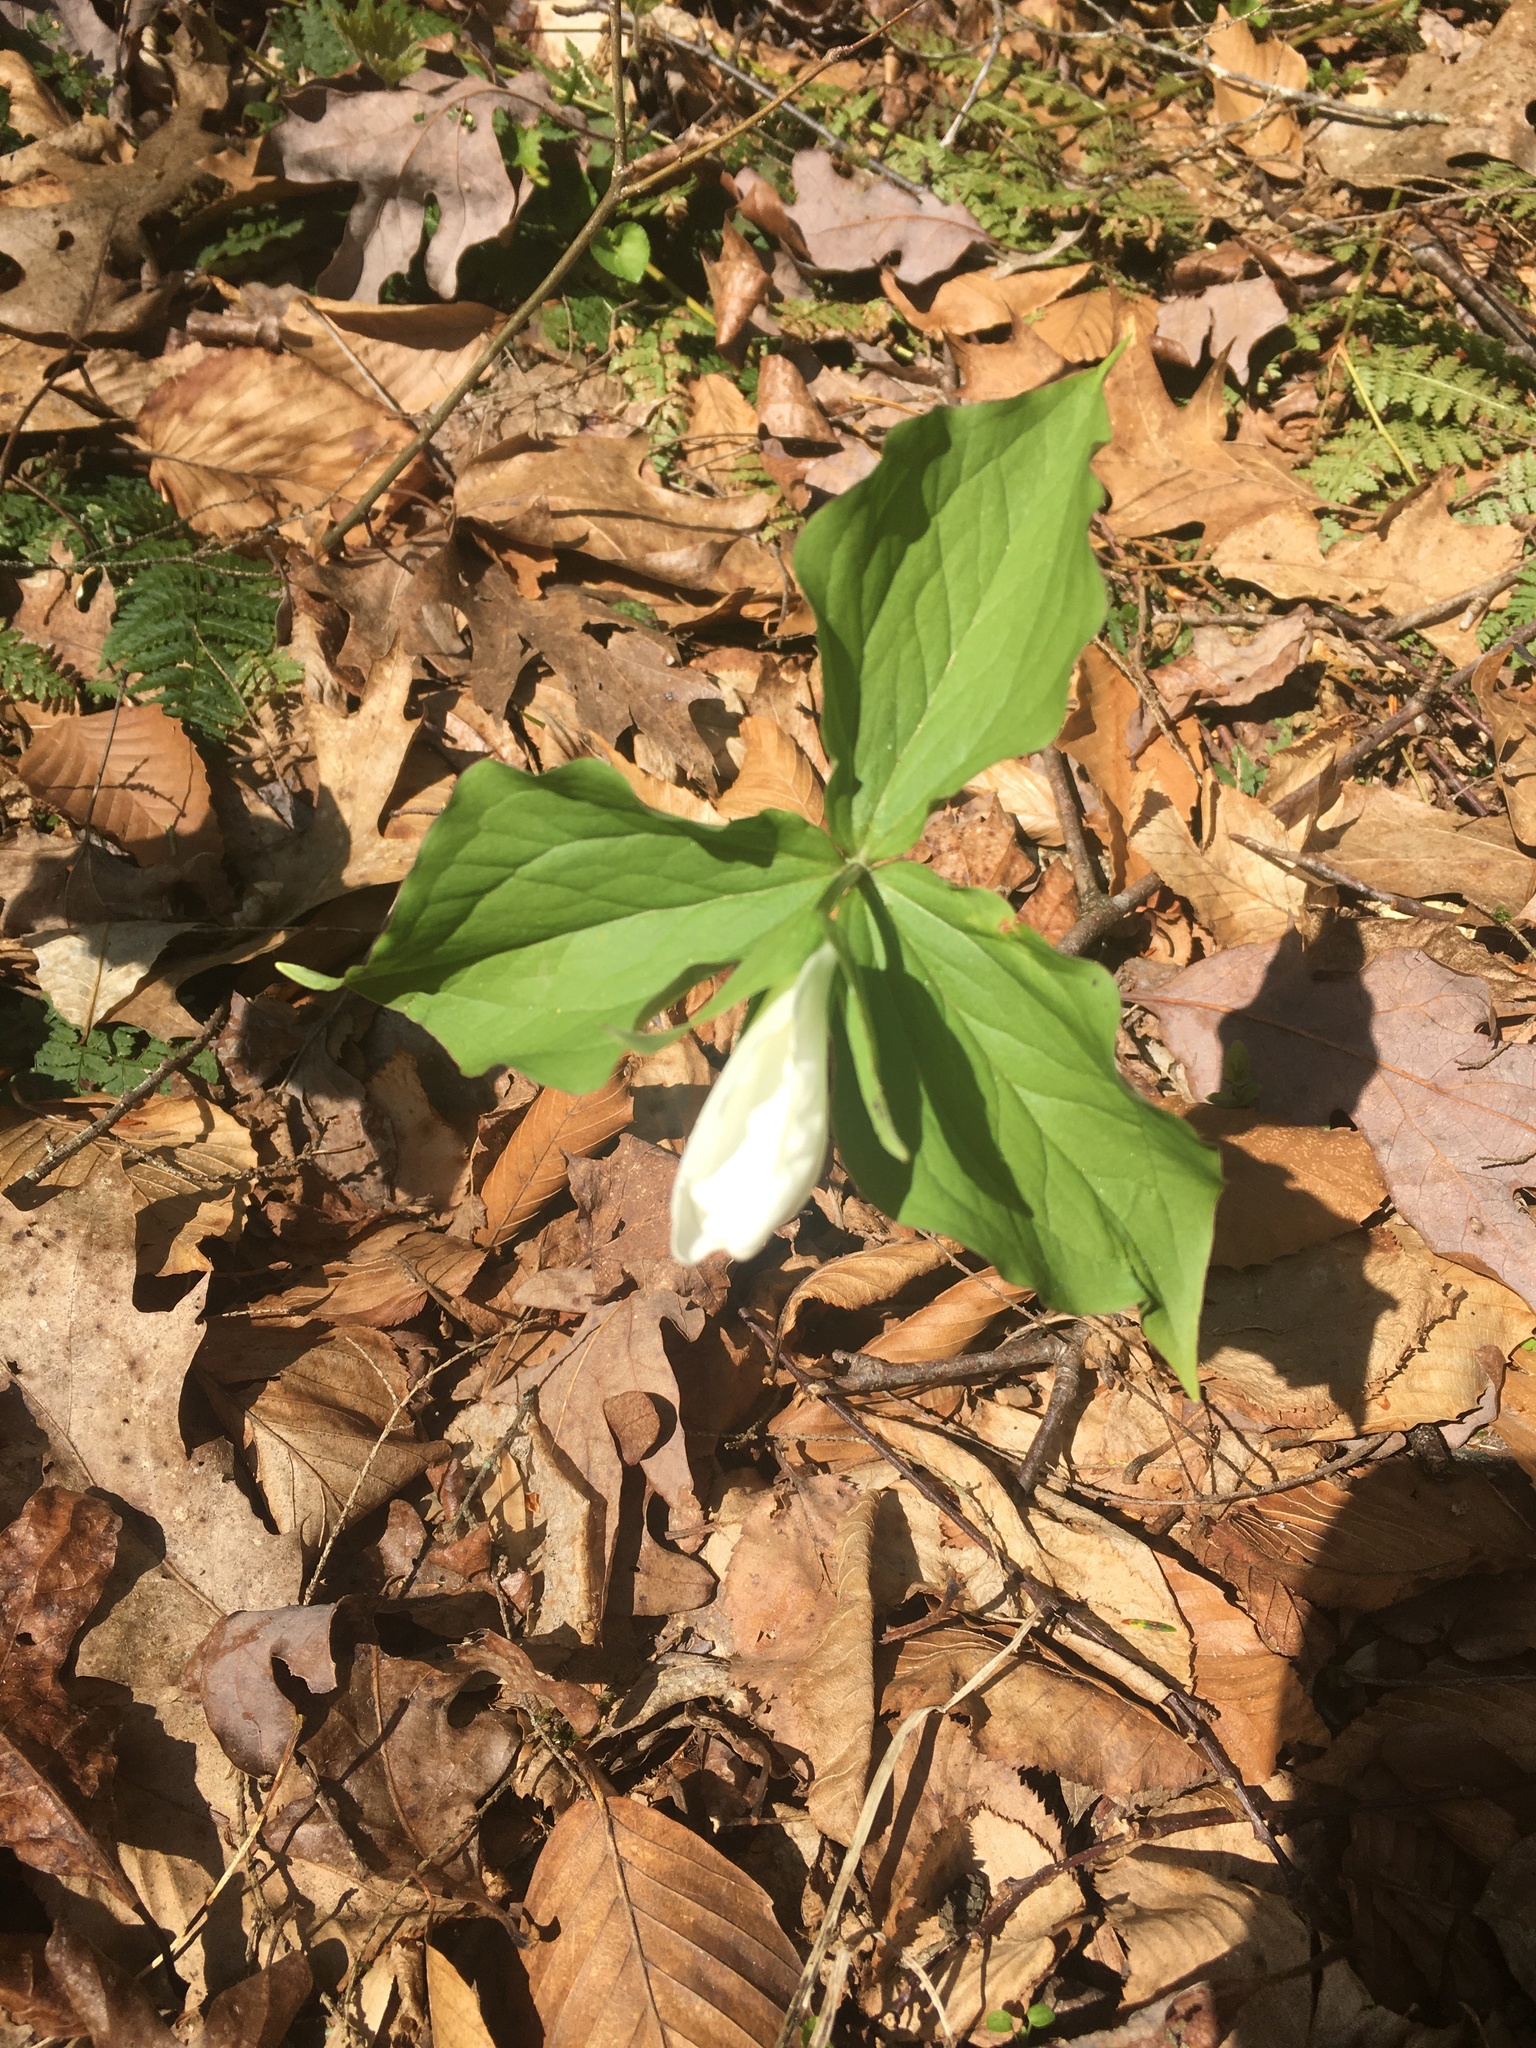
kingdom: Plantae
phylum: Tracheophyta
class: Liliopsida
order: Liliales
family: Melanthiaceae
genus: Trillium
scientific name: Trillium grandiflorum
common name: Great white trillium
